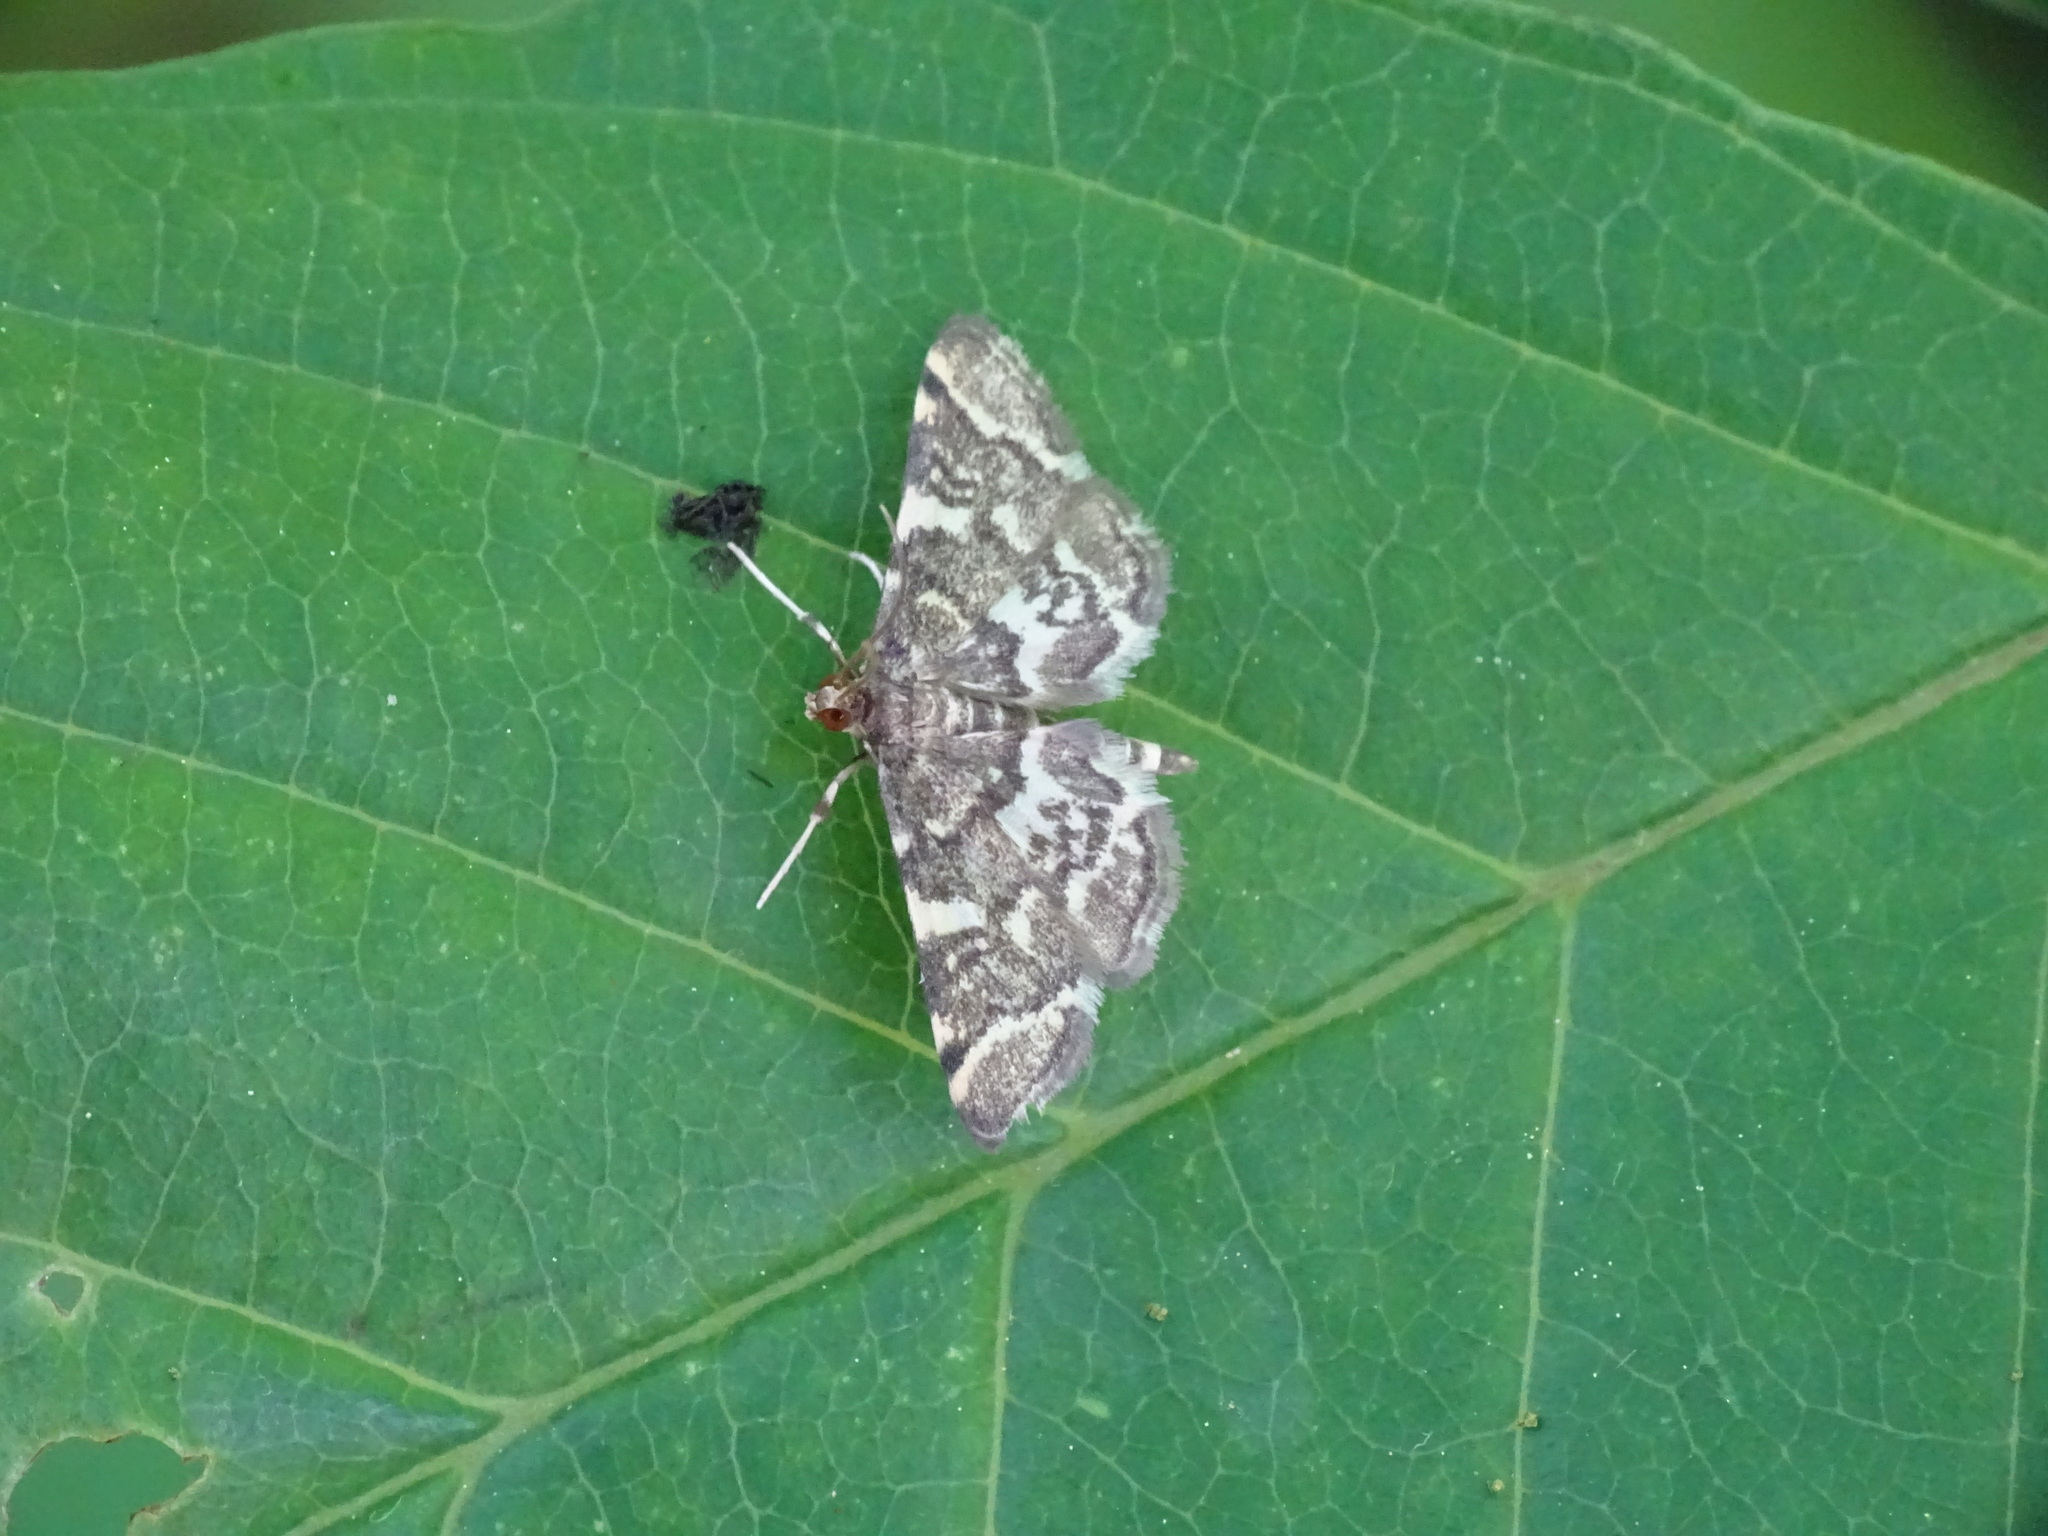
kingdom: Animalia
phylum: Arthropoda
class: Insecta
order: Lepidoptera
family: Crambidae
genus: Anageshna
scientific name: Anageshna primordialis
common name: Yellow-spotted webworm moth
